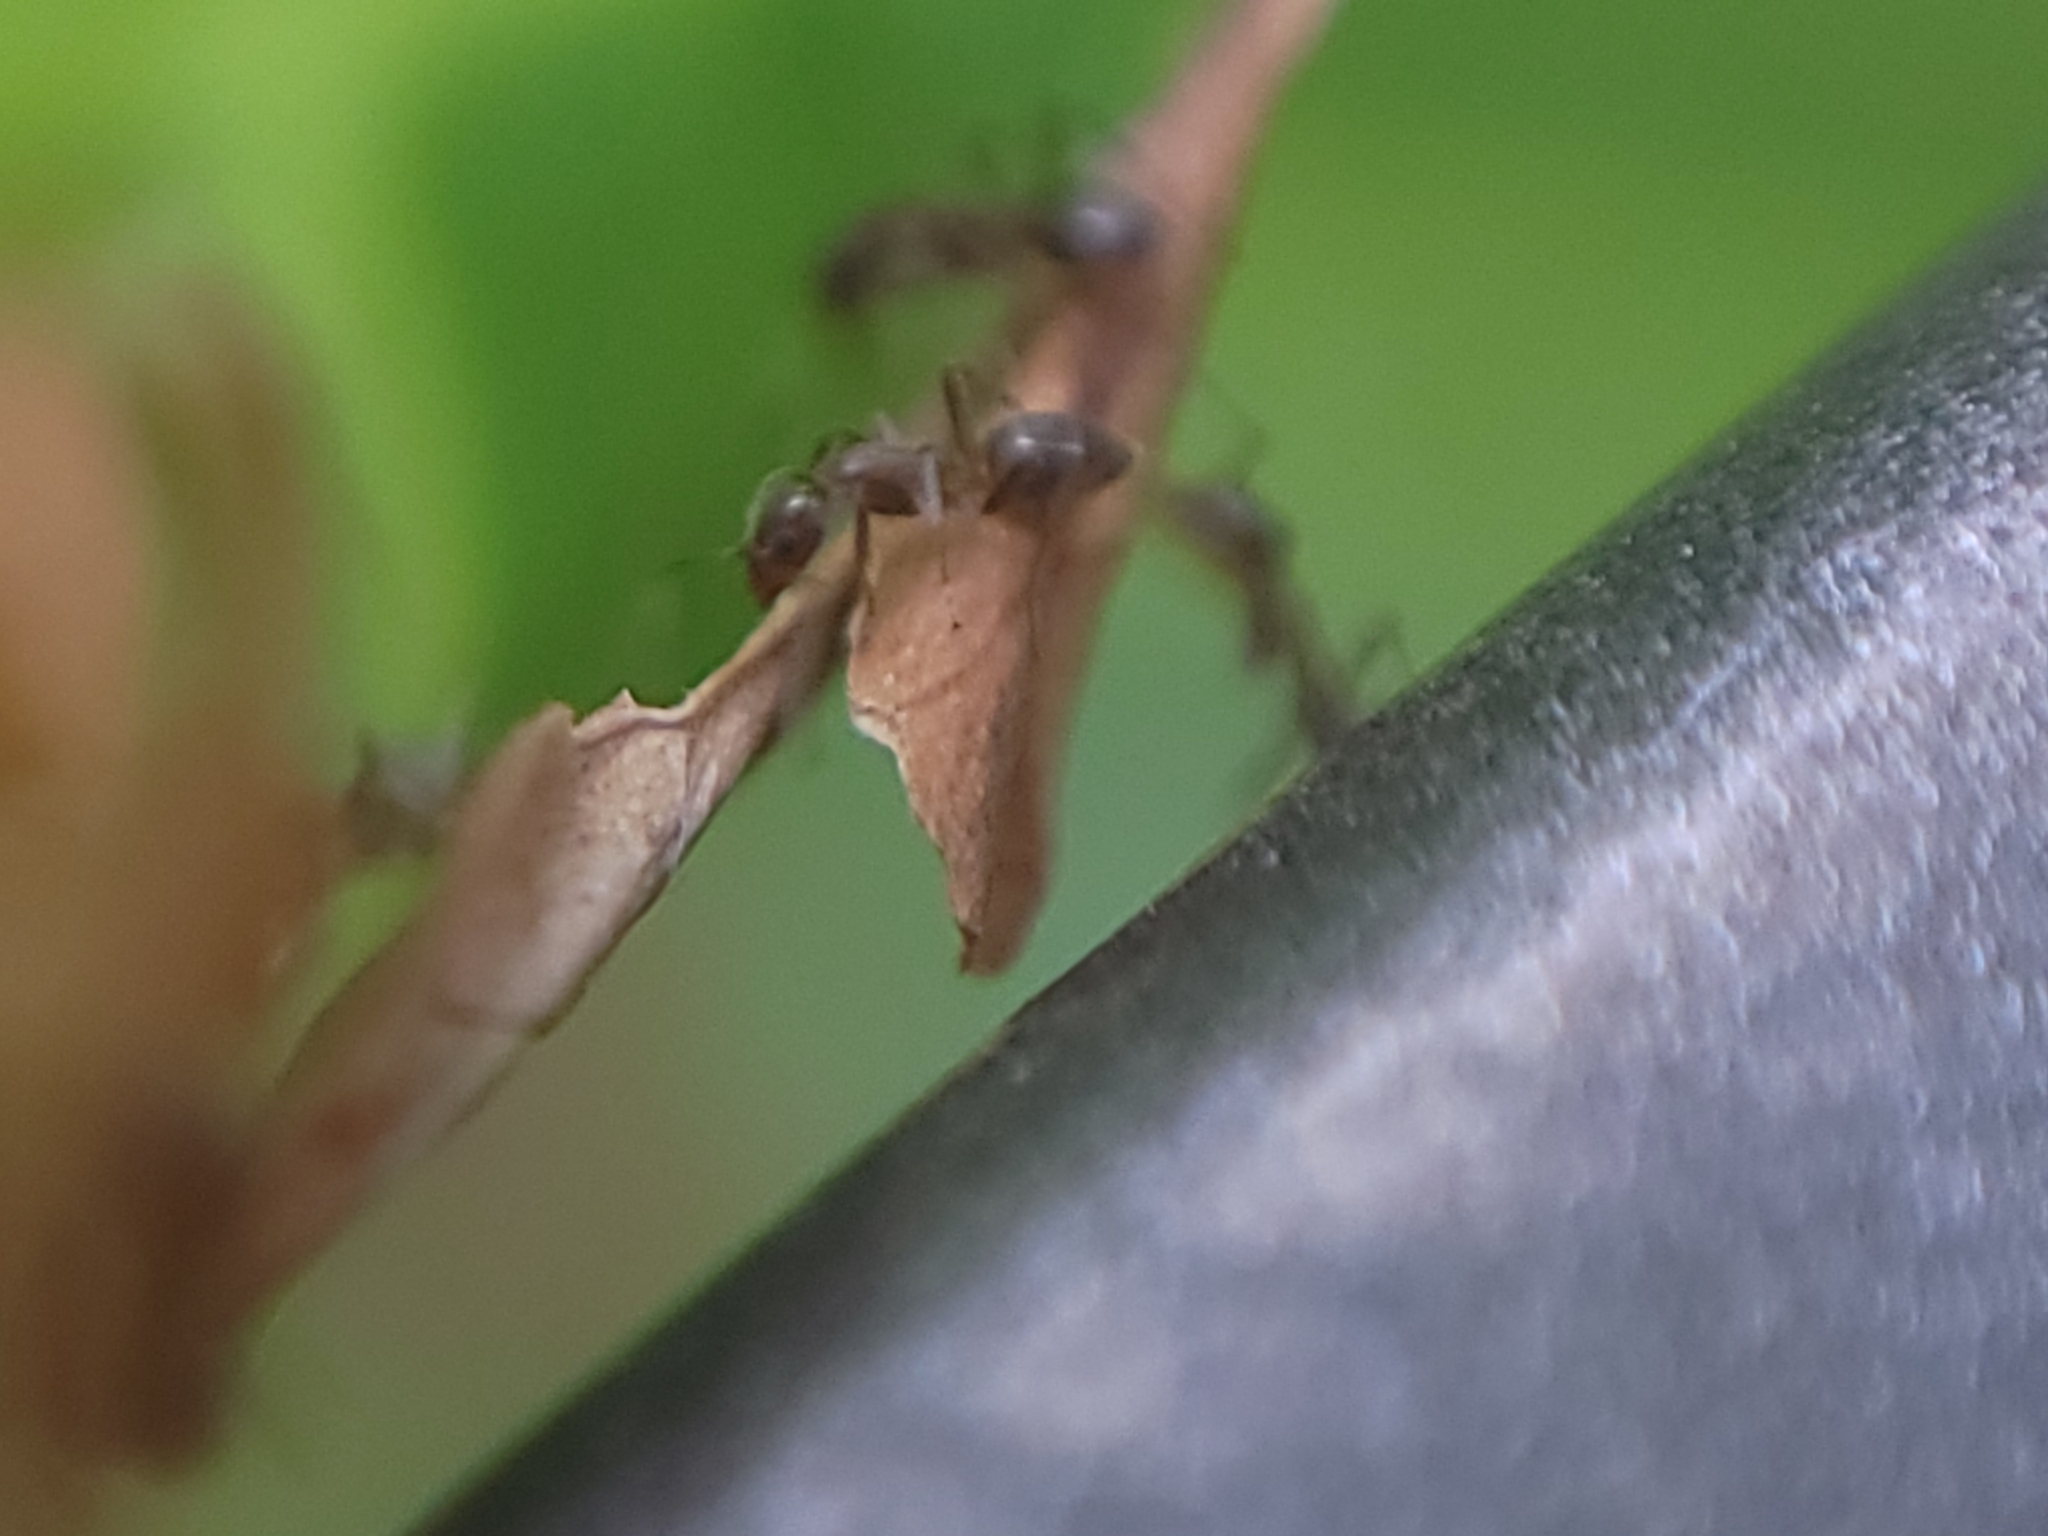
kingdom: Animalia
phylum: Arthropoda
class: Insecta
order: Hymenoptera
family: Formicidae
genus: Linepithema
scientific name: Linepithema humile
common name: Argentine ant
